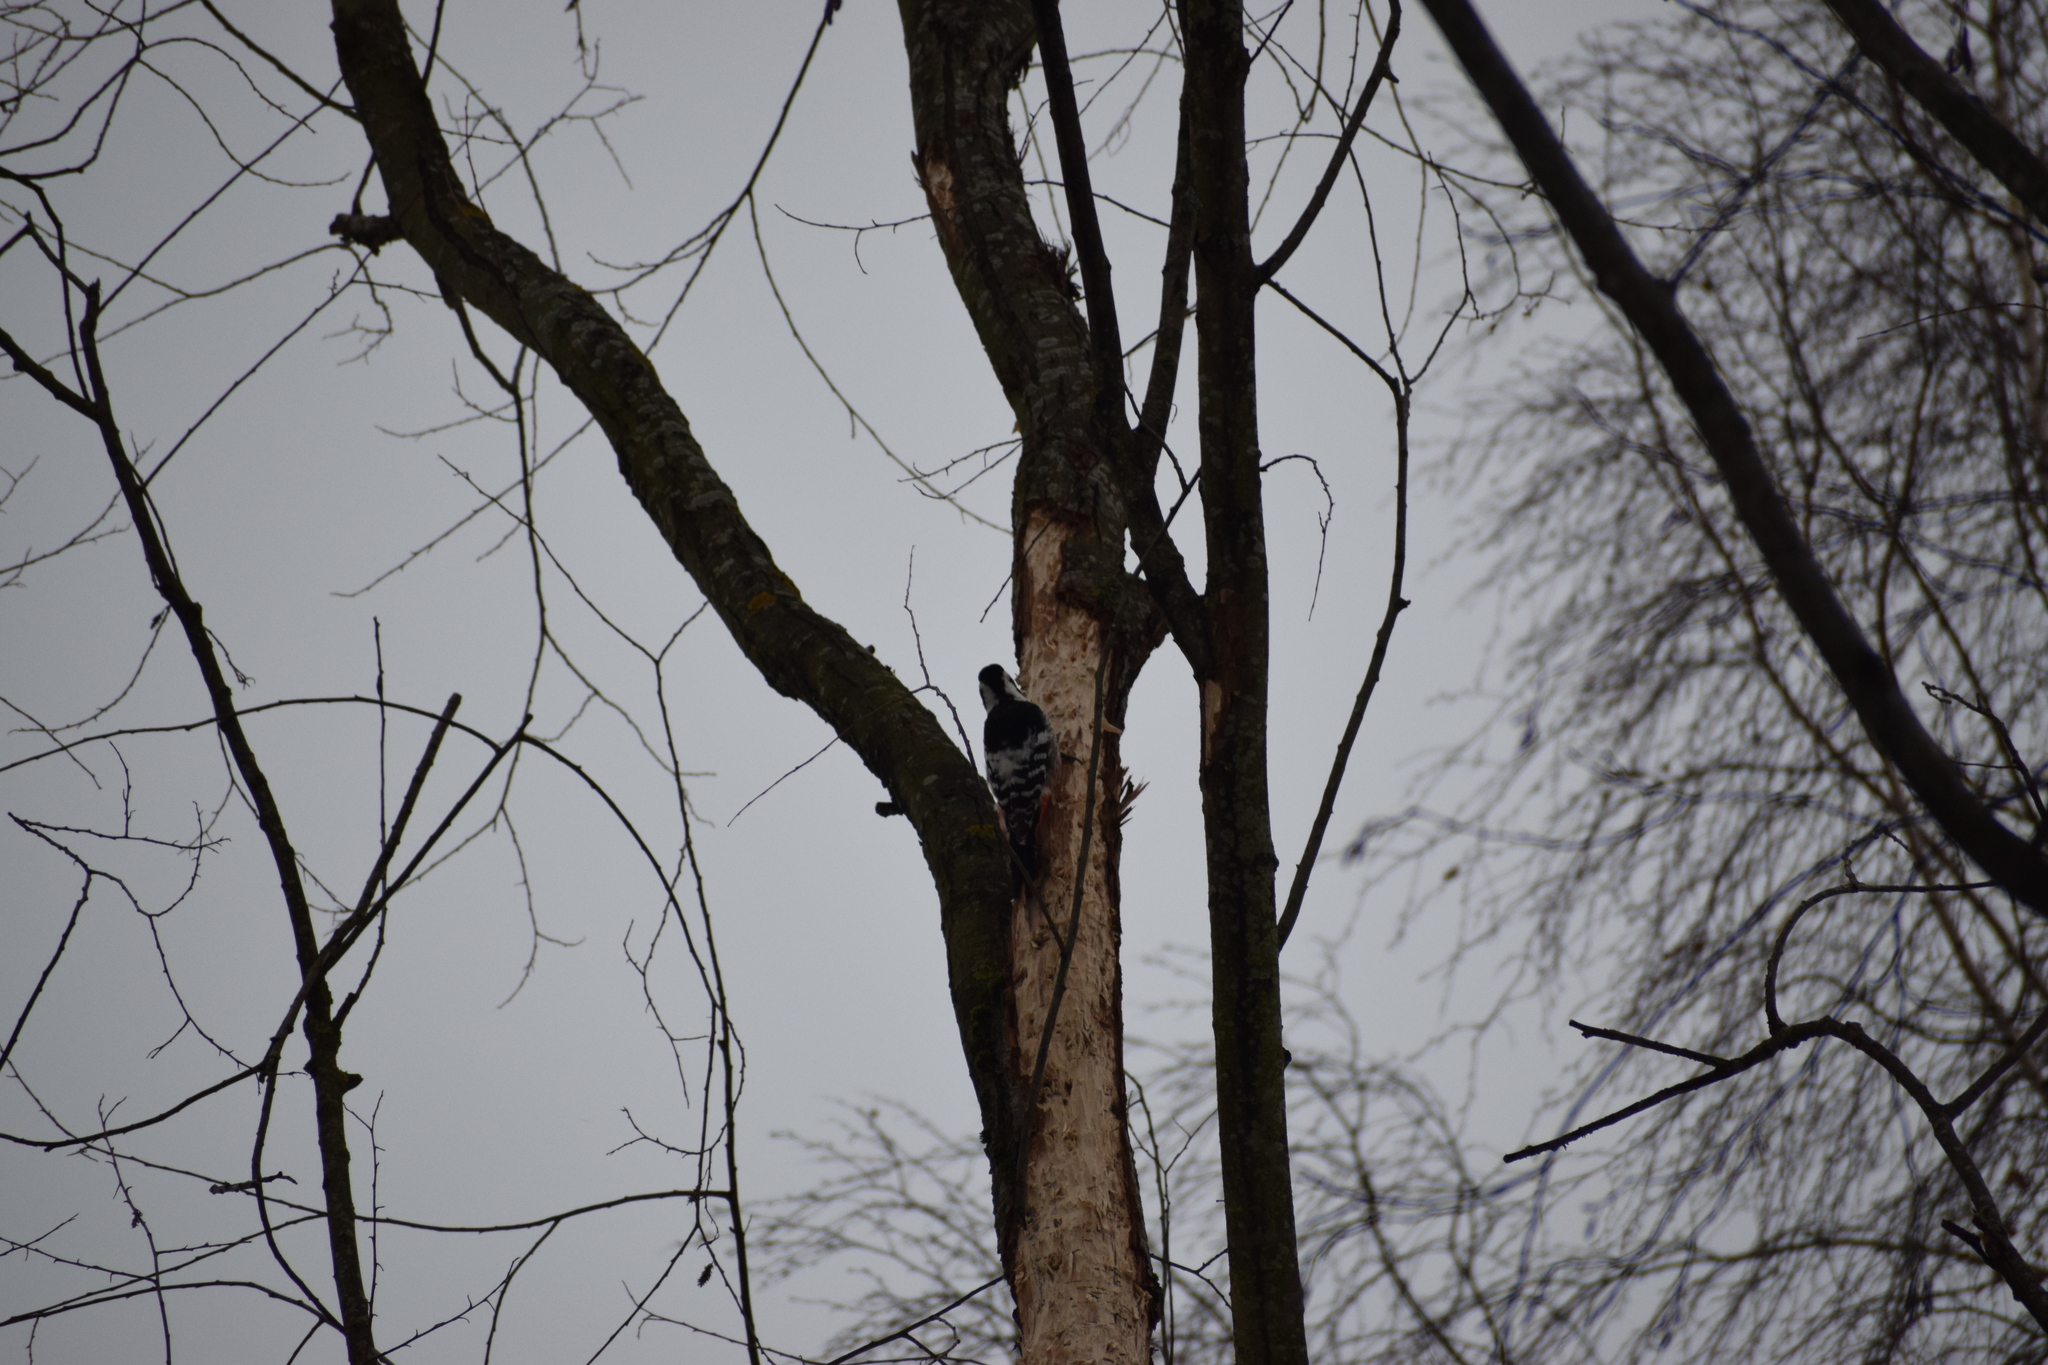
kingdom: Animalia
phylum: Chordata
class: Aves
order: Piciformes
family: Picidae
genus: Dendrocopos
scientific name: Dendrocopos leucotos
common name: White-backed woodpecker
